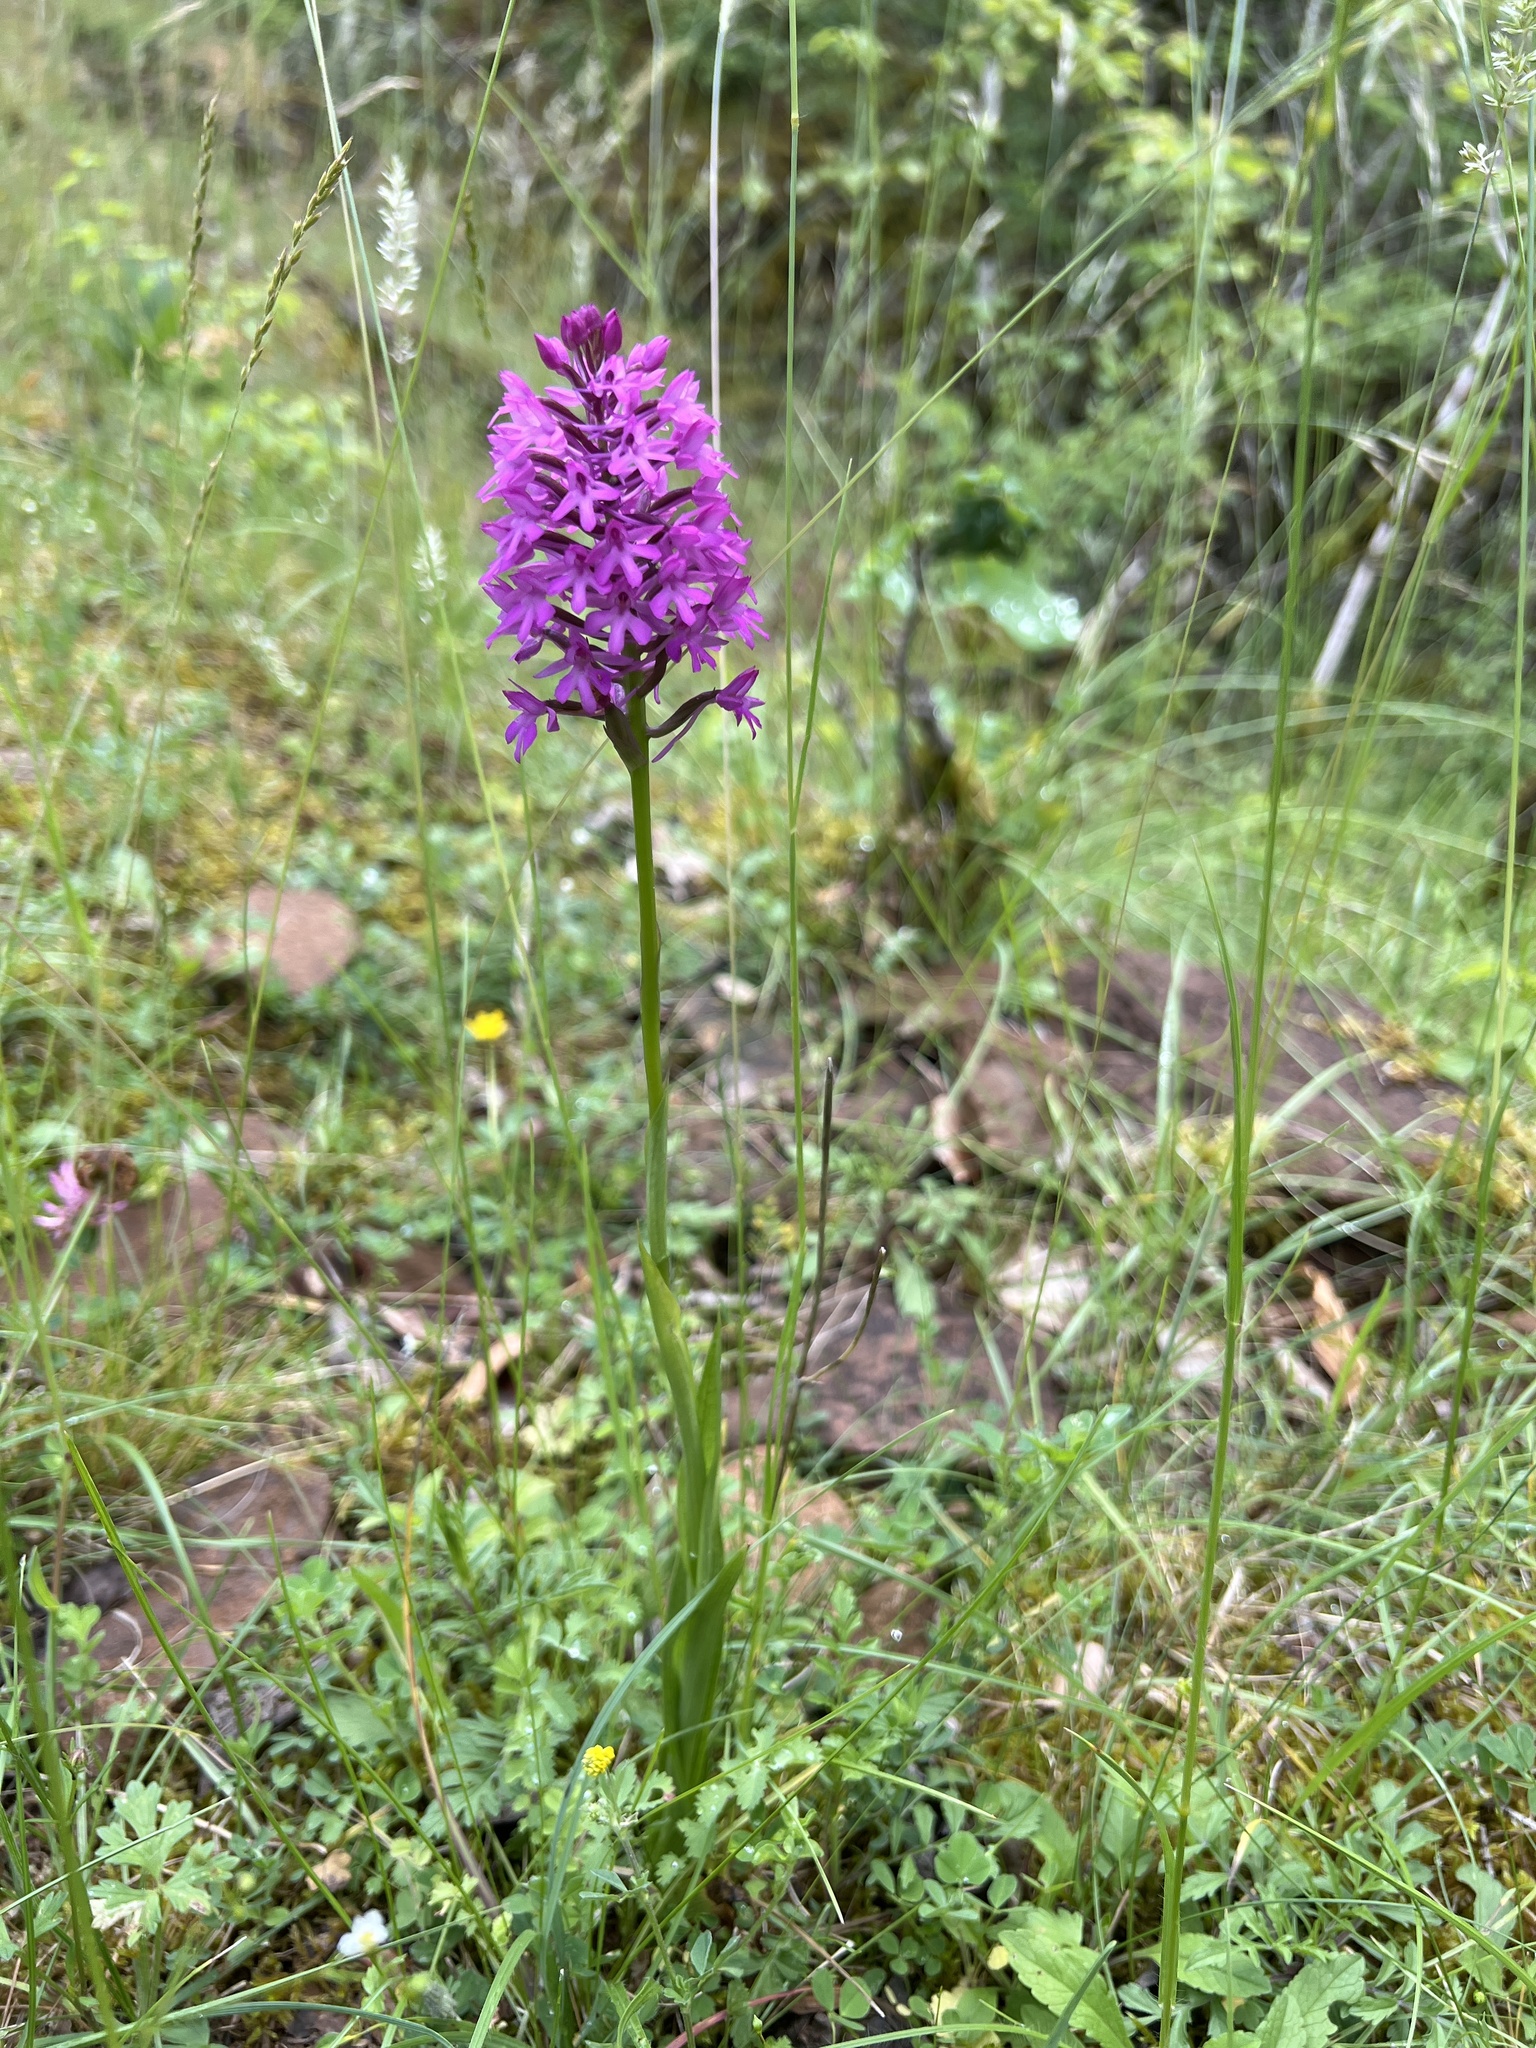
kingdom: Plantae
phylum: Tracheophyta
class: Liliopsida
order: Asparagales
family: Orchidaceae
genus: Anacamptis
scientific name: Anacamptis pyramidalis
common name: Pyramidal orchid
